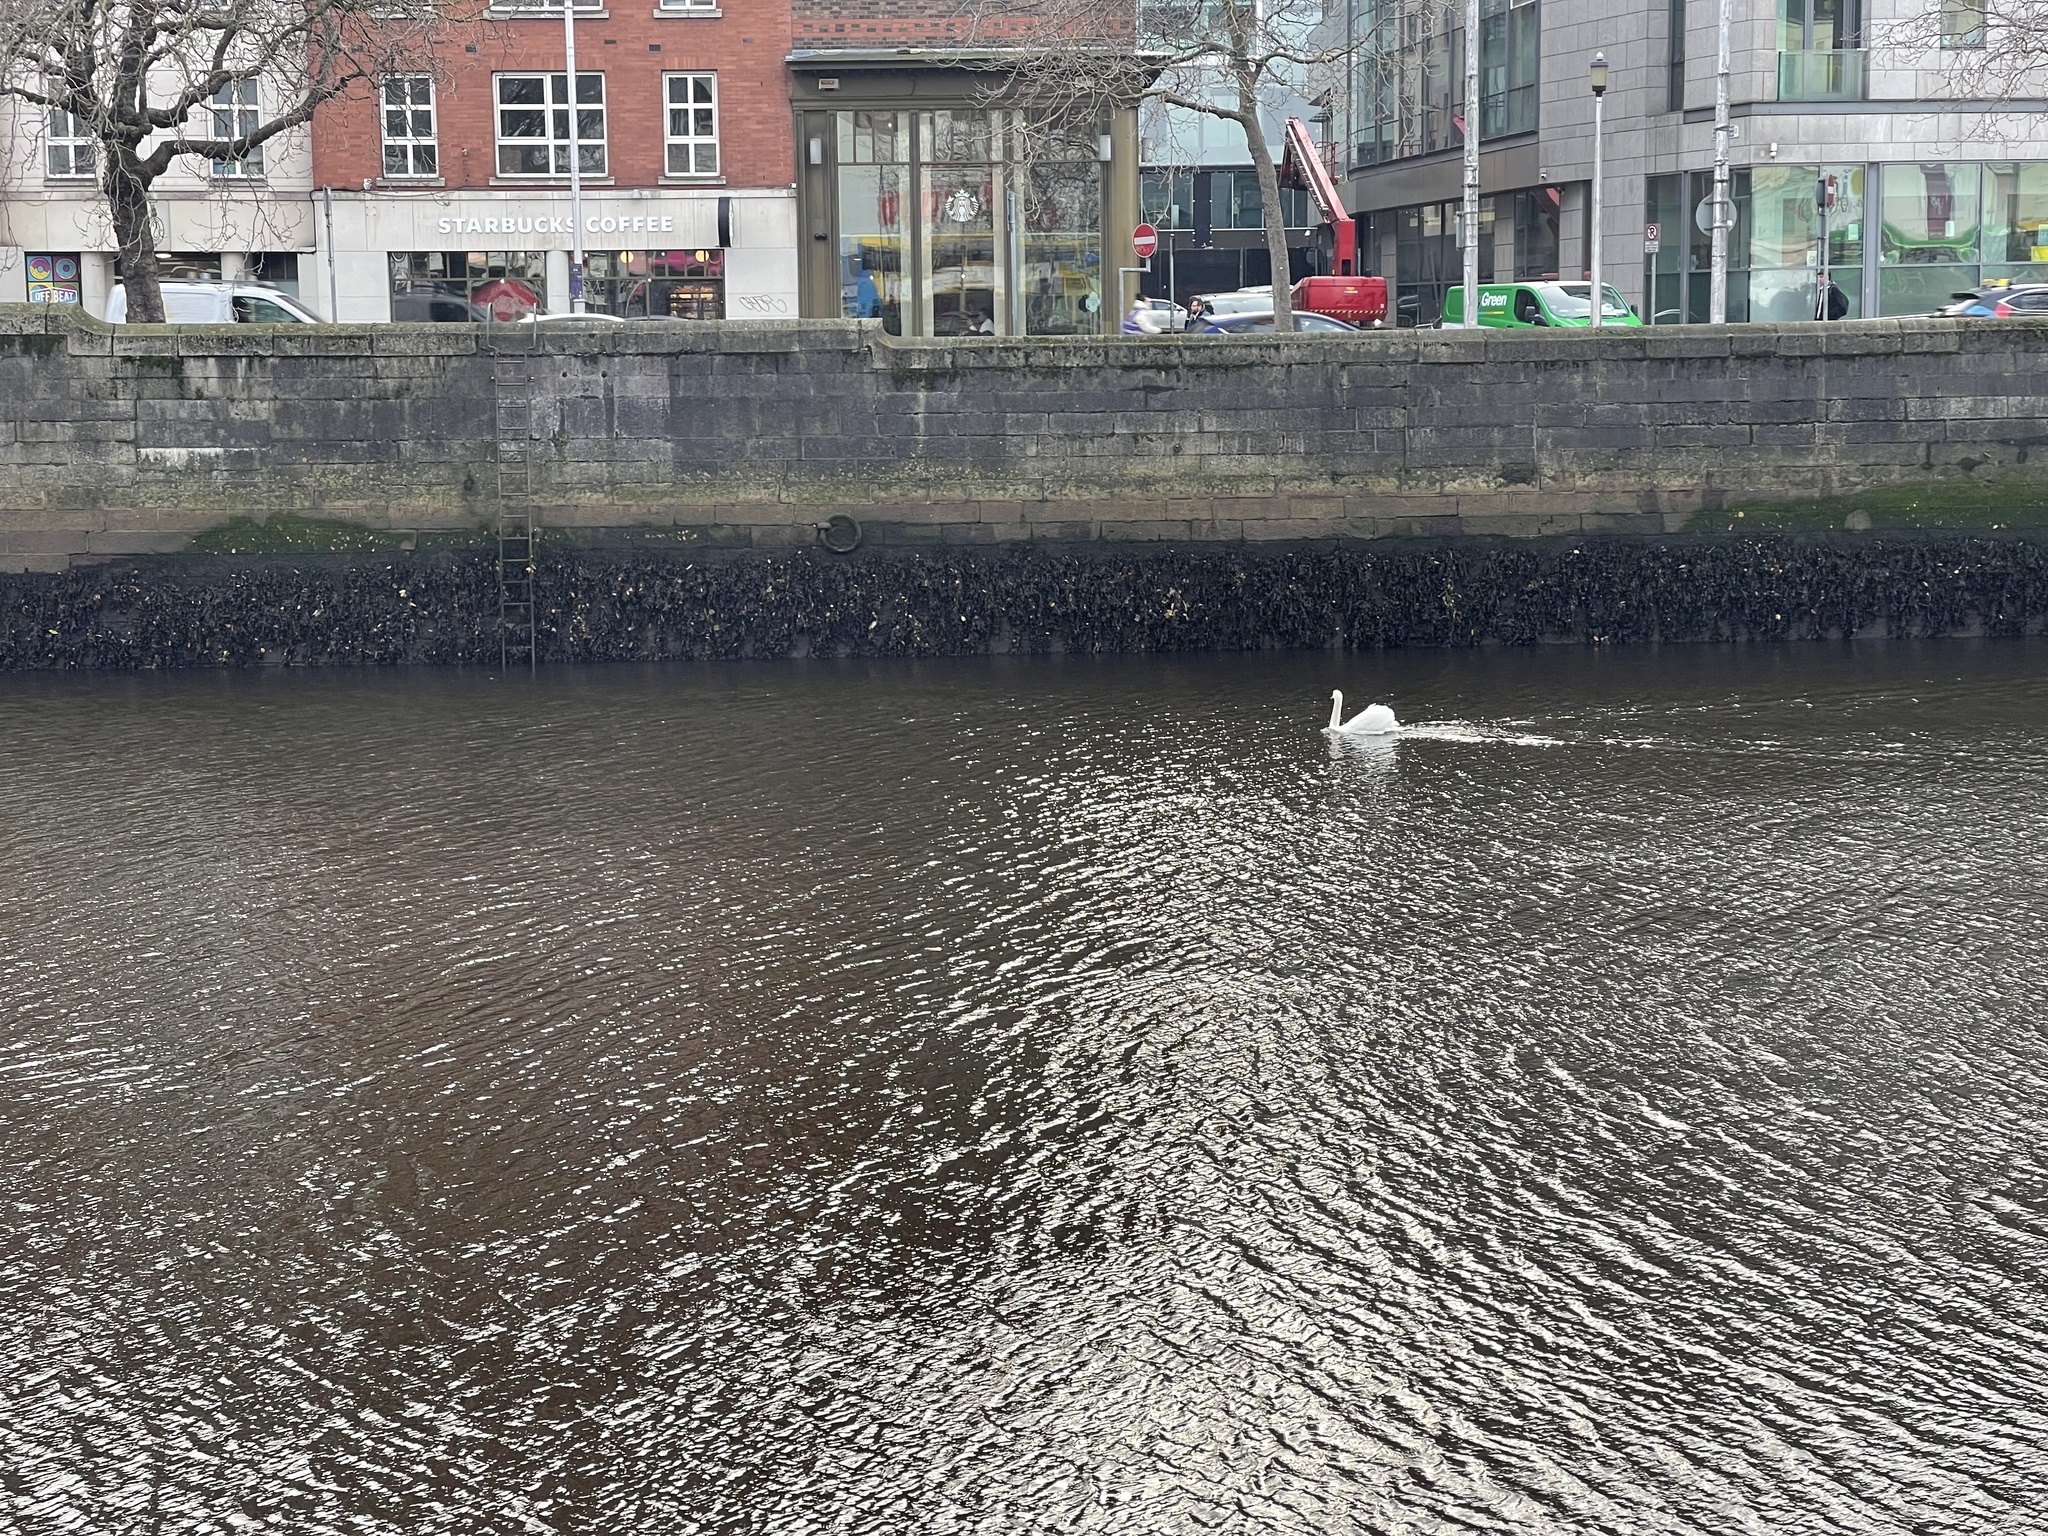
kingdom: Animalia
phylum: Chordata
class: Aves
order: Anseriformes
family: Anatidae
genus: Cygnus
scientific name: Cygnus olor
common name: Mute swan
